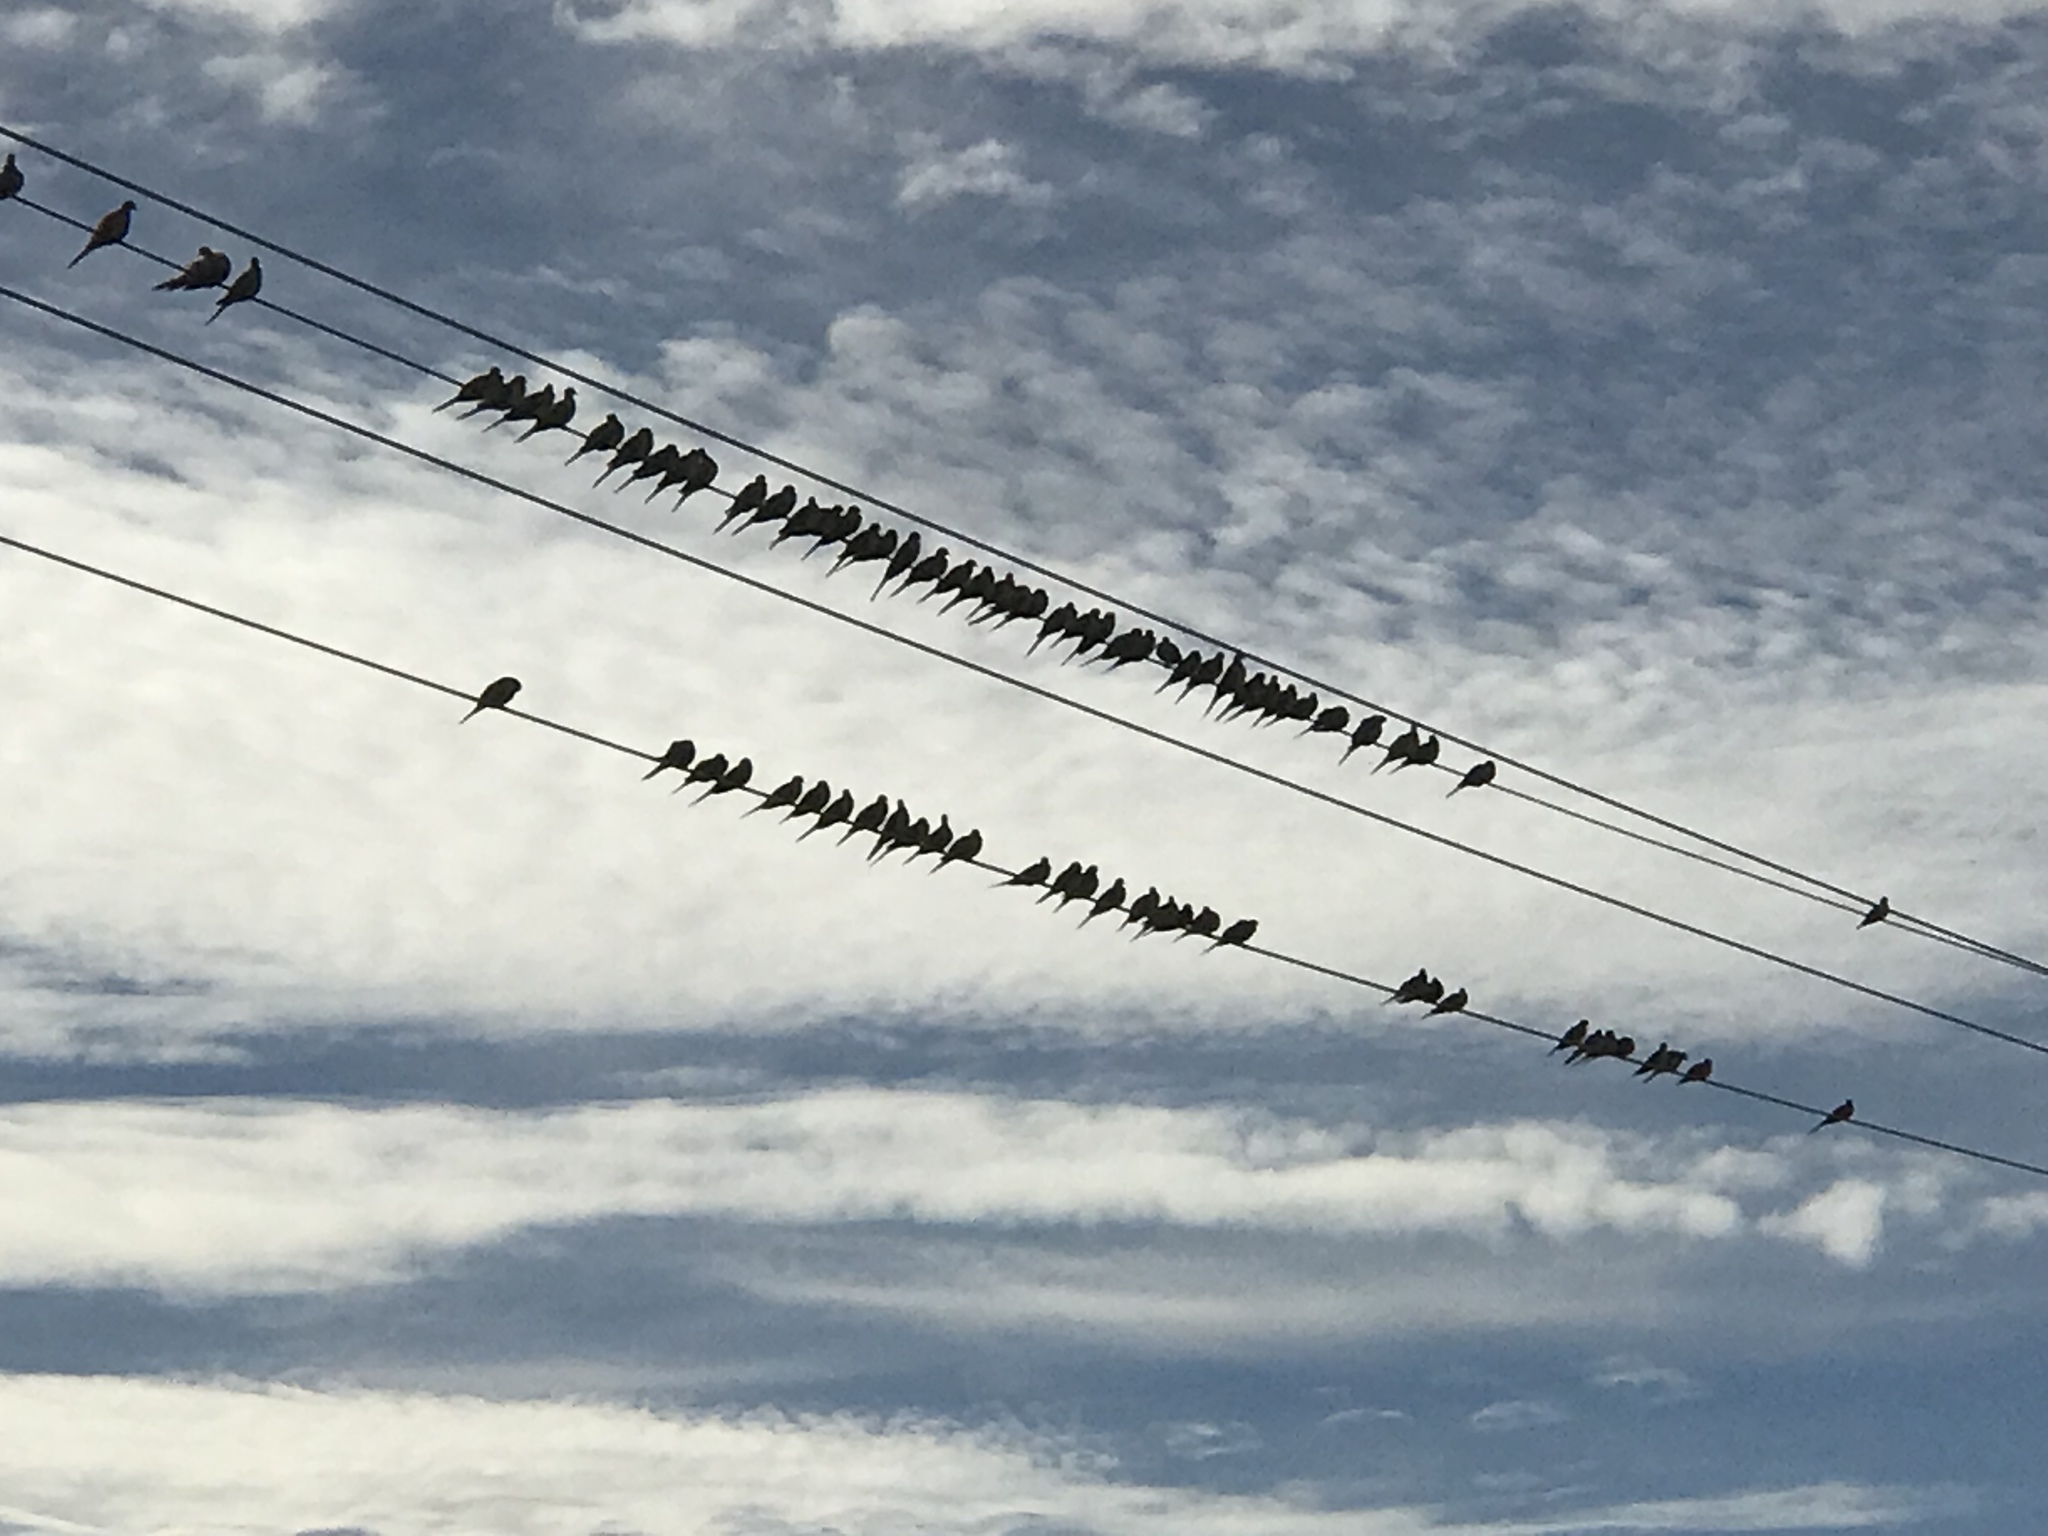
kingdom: Animalia
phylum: Chordata
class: Aves
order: Columbiformes
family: Columbidae
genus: Zenaida
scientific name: Zenaida macroura
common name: Mourning dove
